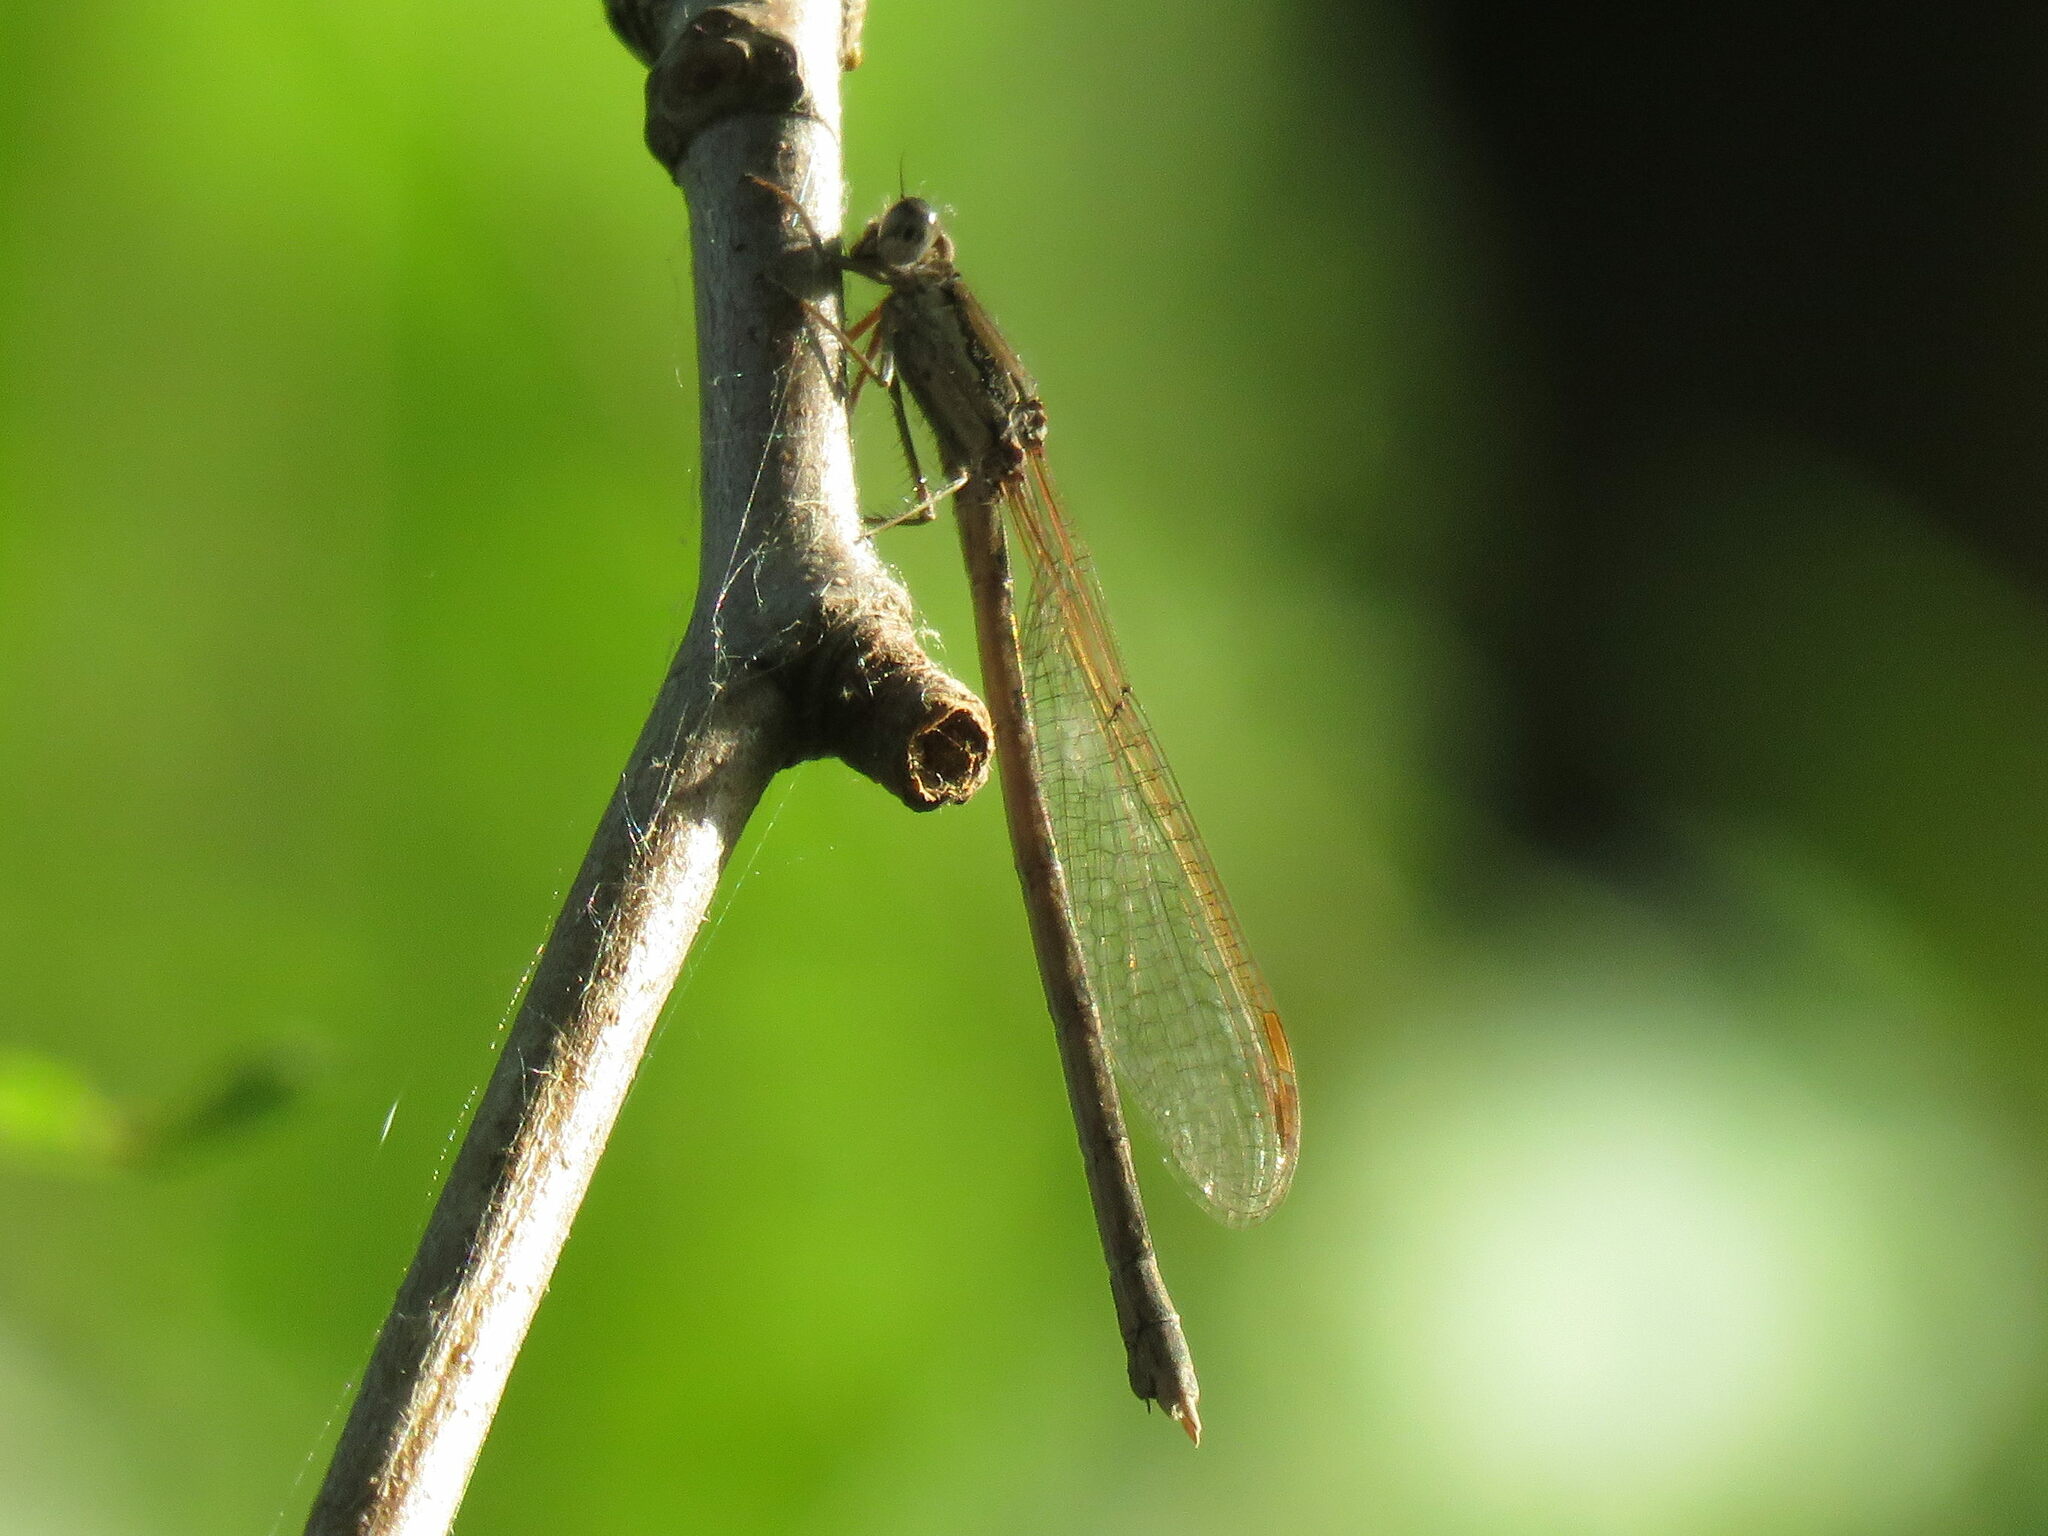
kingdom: Animalia
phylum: Arthropoda
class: Insecta
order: Odonata
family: Lestidae
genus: Sympecma
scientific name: Sympecma fusca
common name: Common winter damsel
